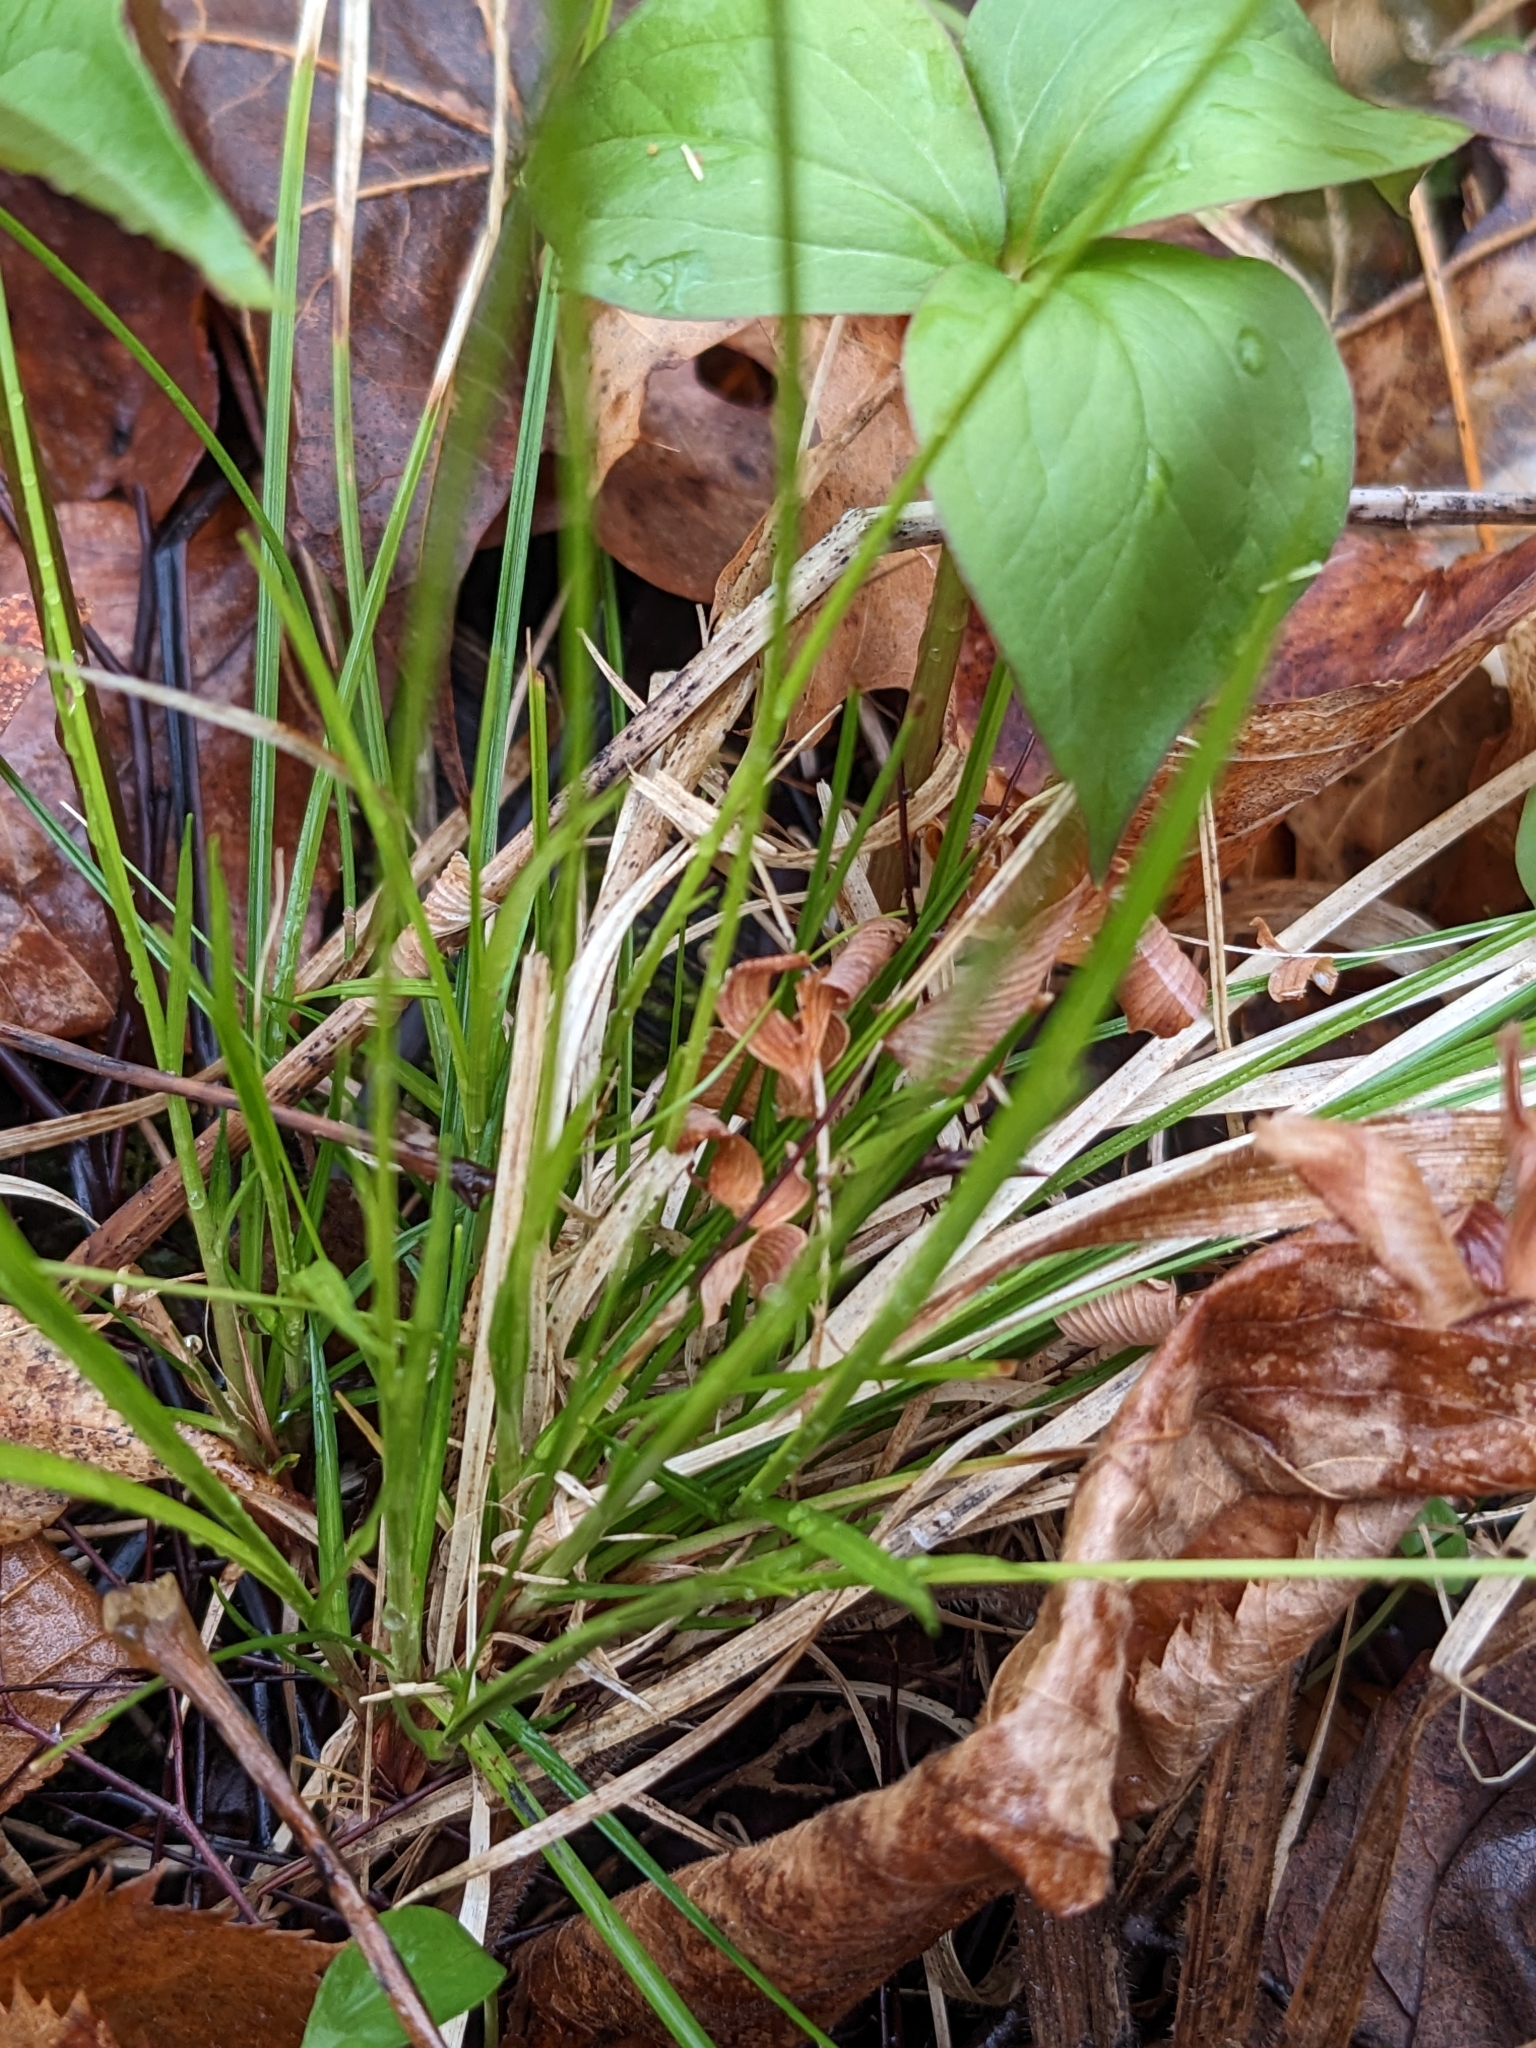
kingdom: Plantae
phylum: Tracheophyta
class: Liliopsida
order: Poales
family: Cyperaceae
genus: Carex
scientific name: Carex pensylvanica
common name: Common oak sedge
